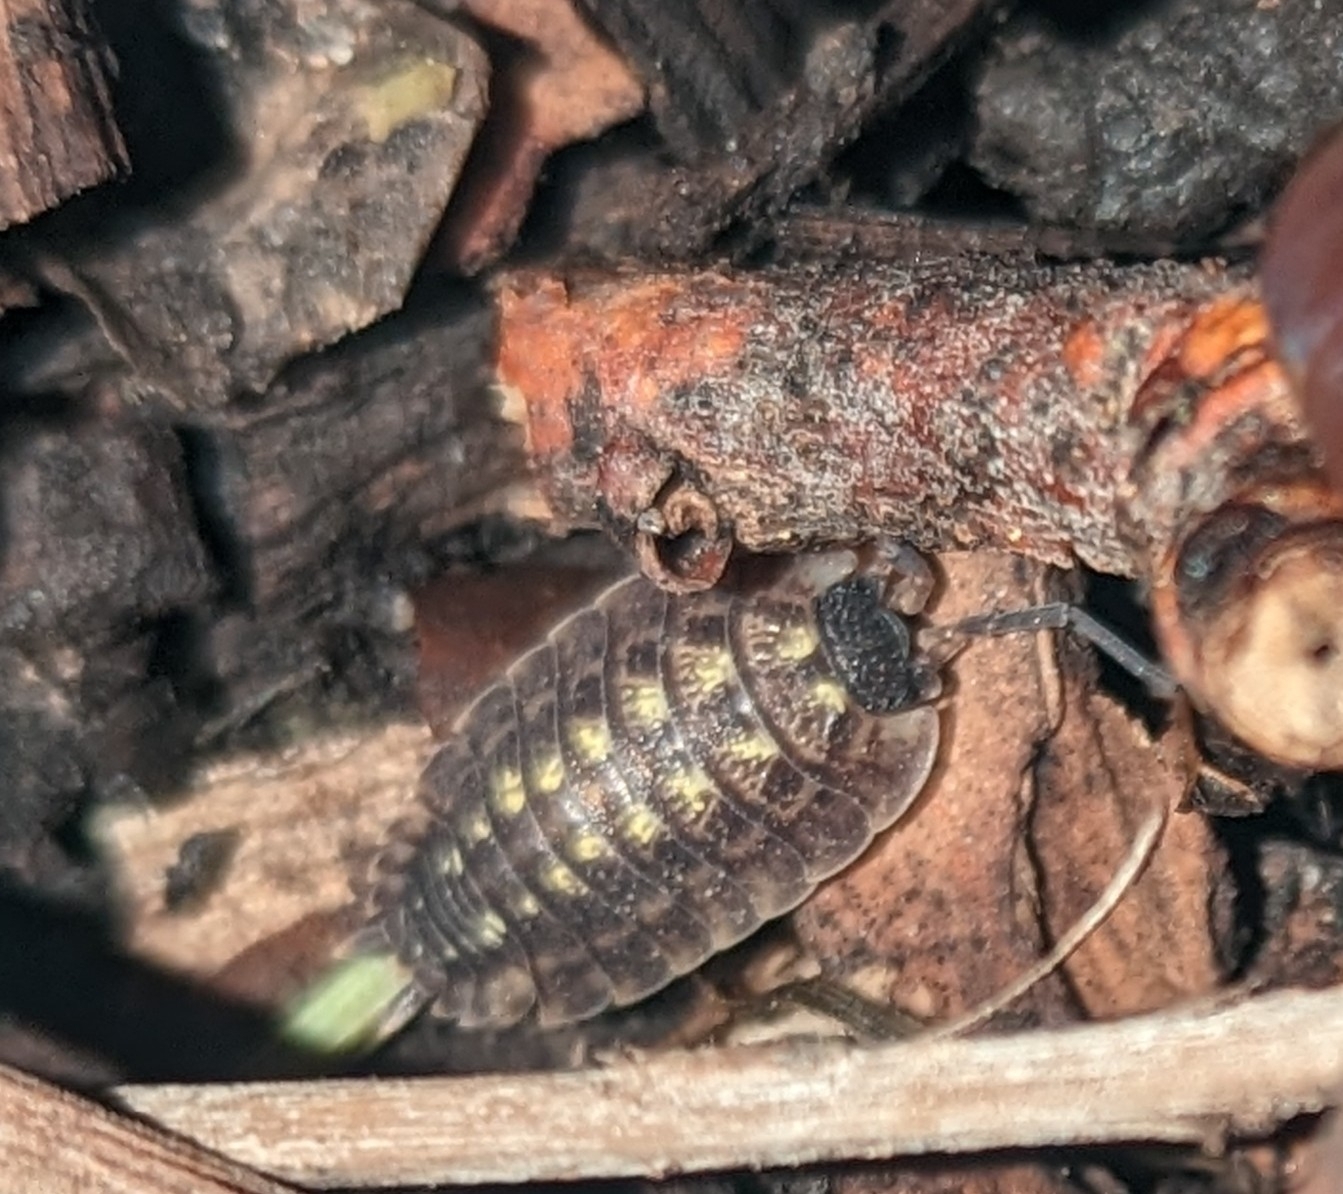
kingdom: Animalia
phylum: Arthropoda
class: Malacostraca
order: Isopoda
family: Porcellionidae
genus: Porcellio
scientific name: Porcellio spinicornis
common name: Painted woodlouse
